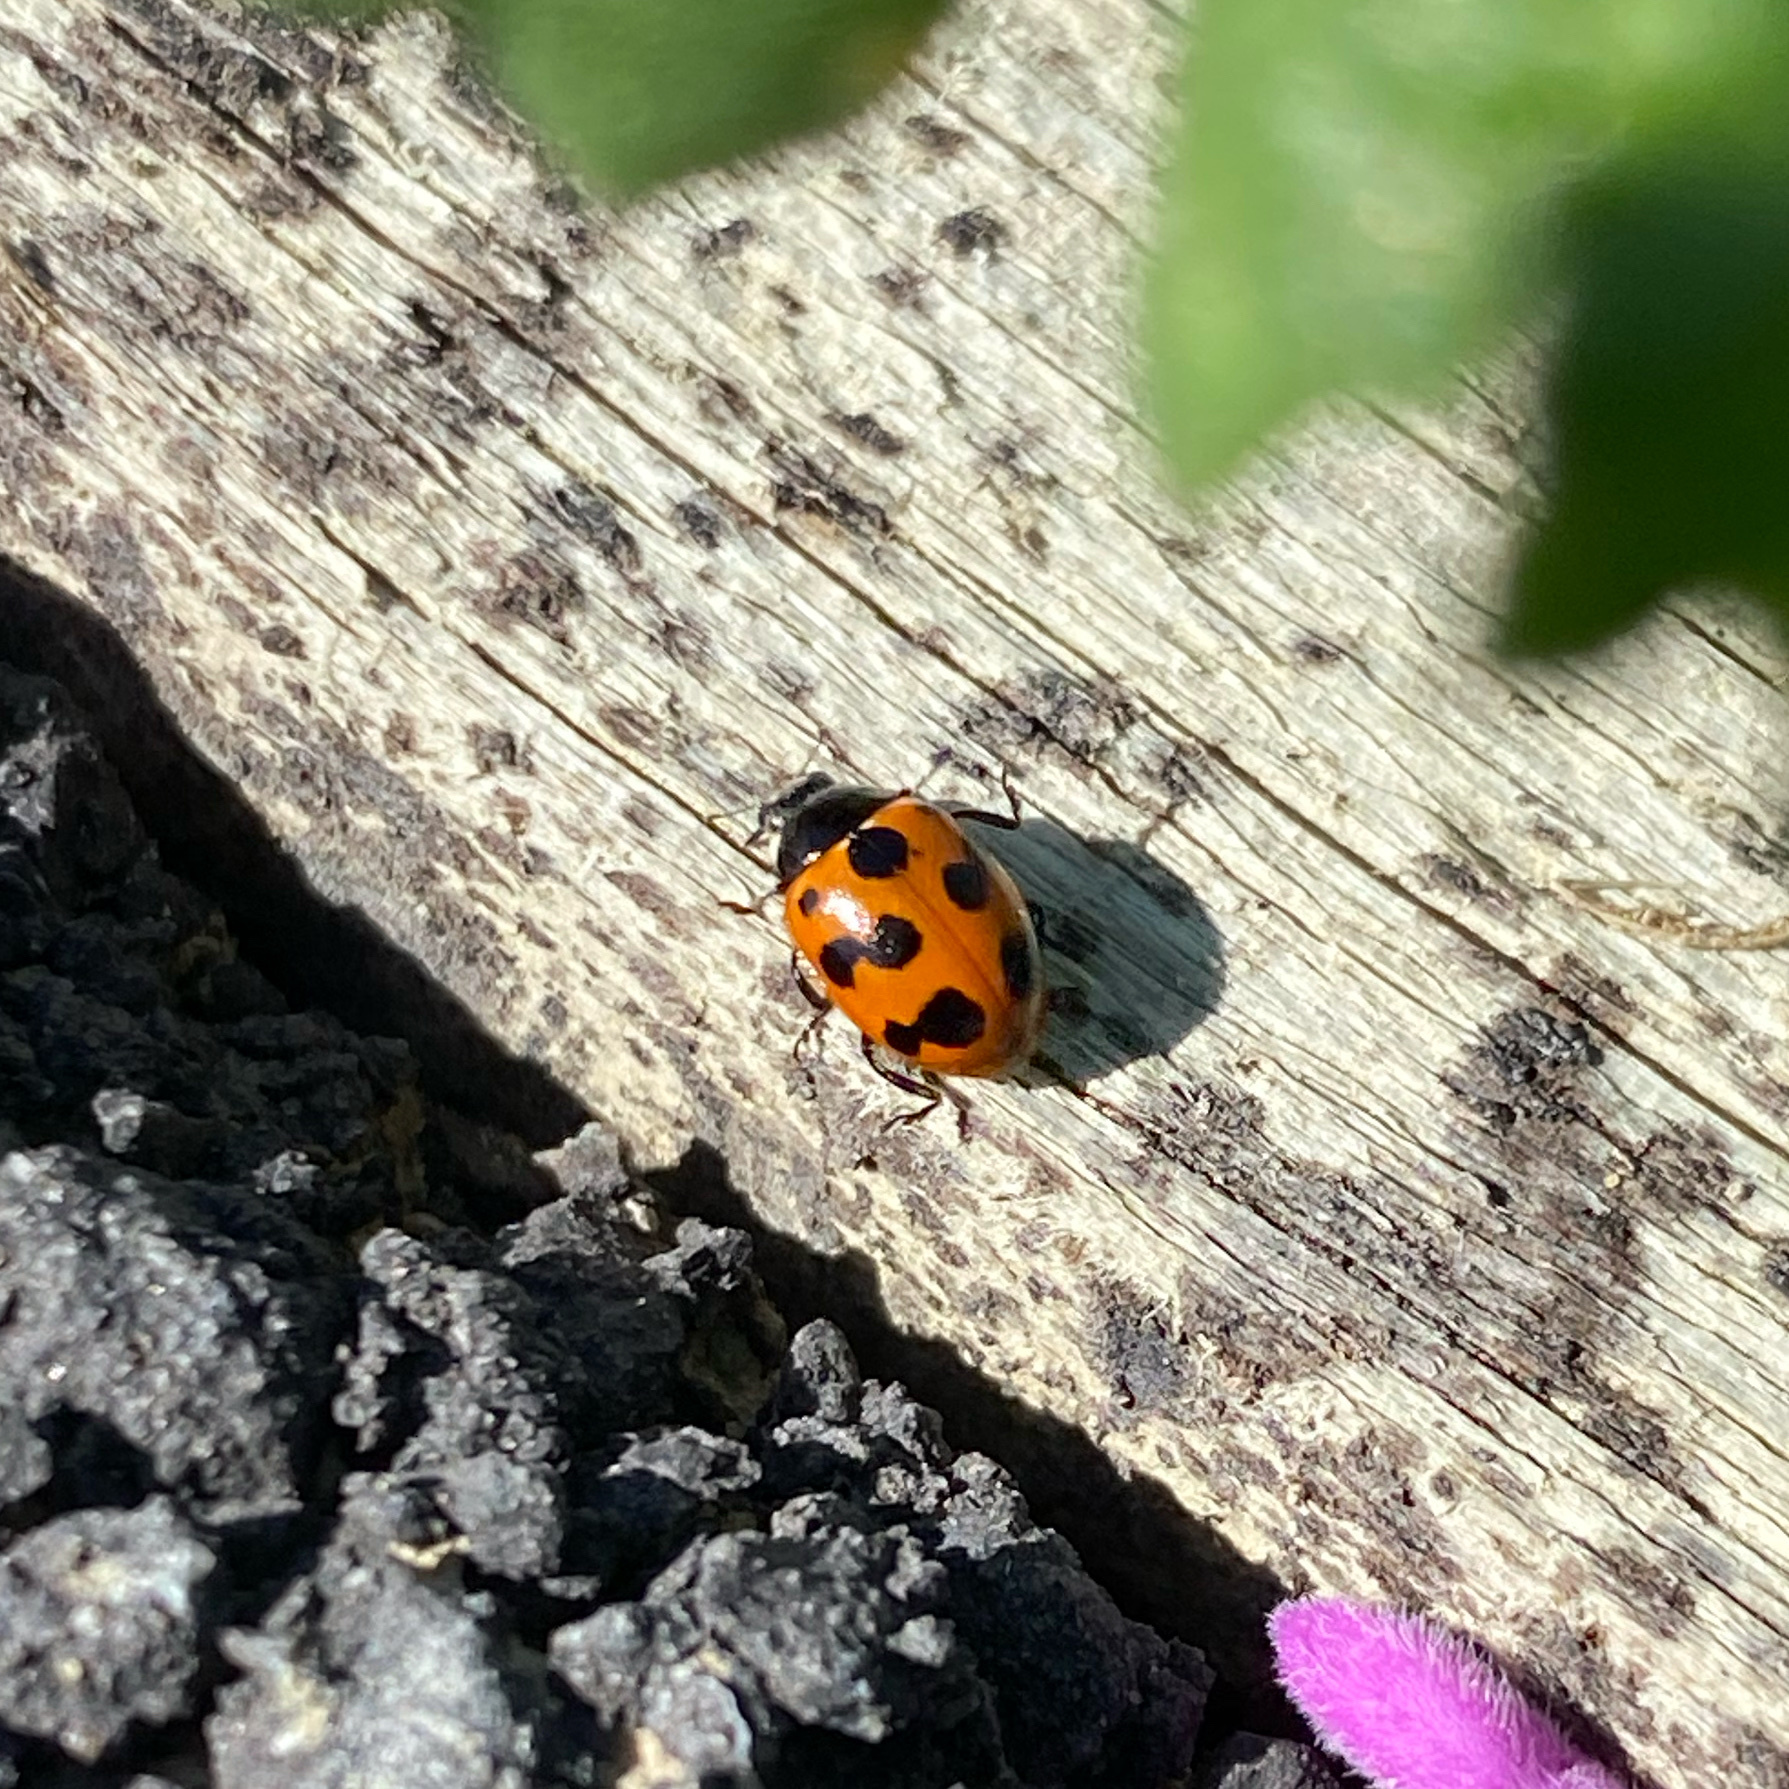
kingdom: Animalia
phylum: Arthropoda
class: Insecta
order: Coleoptera
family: Coccinellidae
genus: Coccinella
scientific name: Coccinella undecimpunctata
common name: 11-spot ladybird
